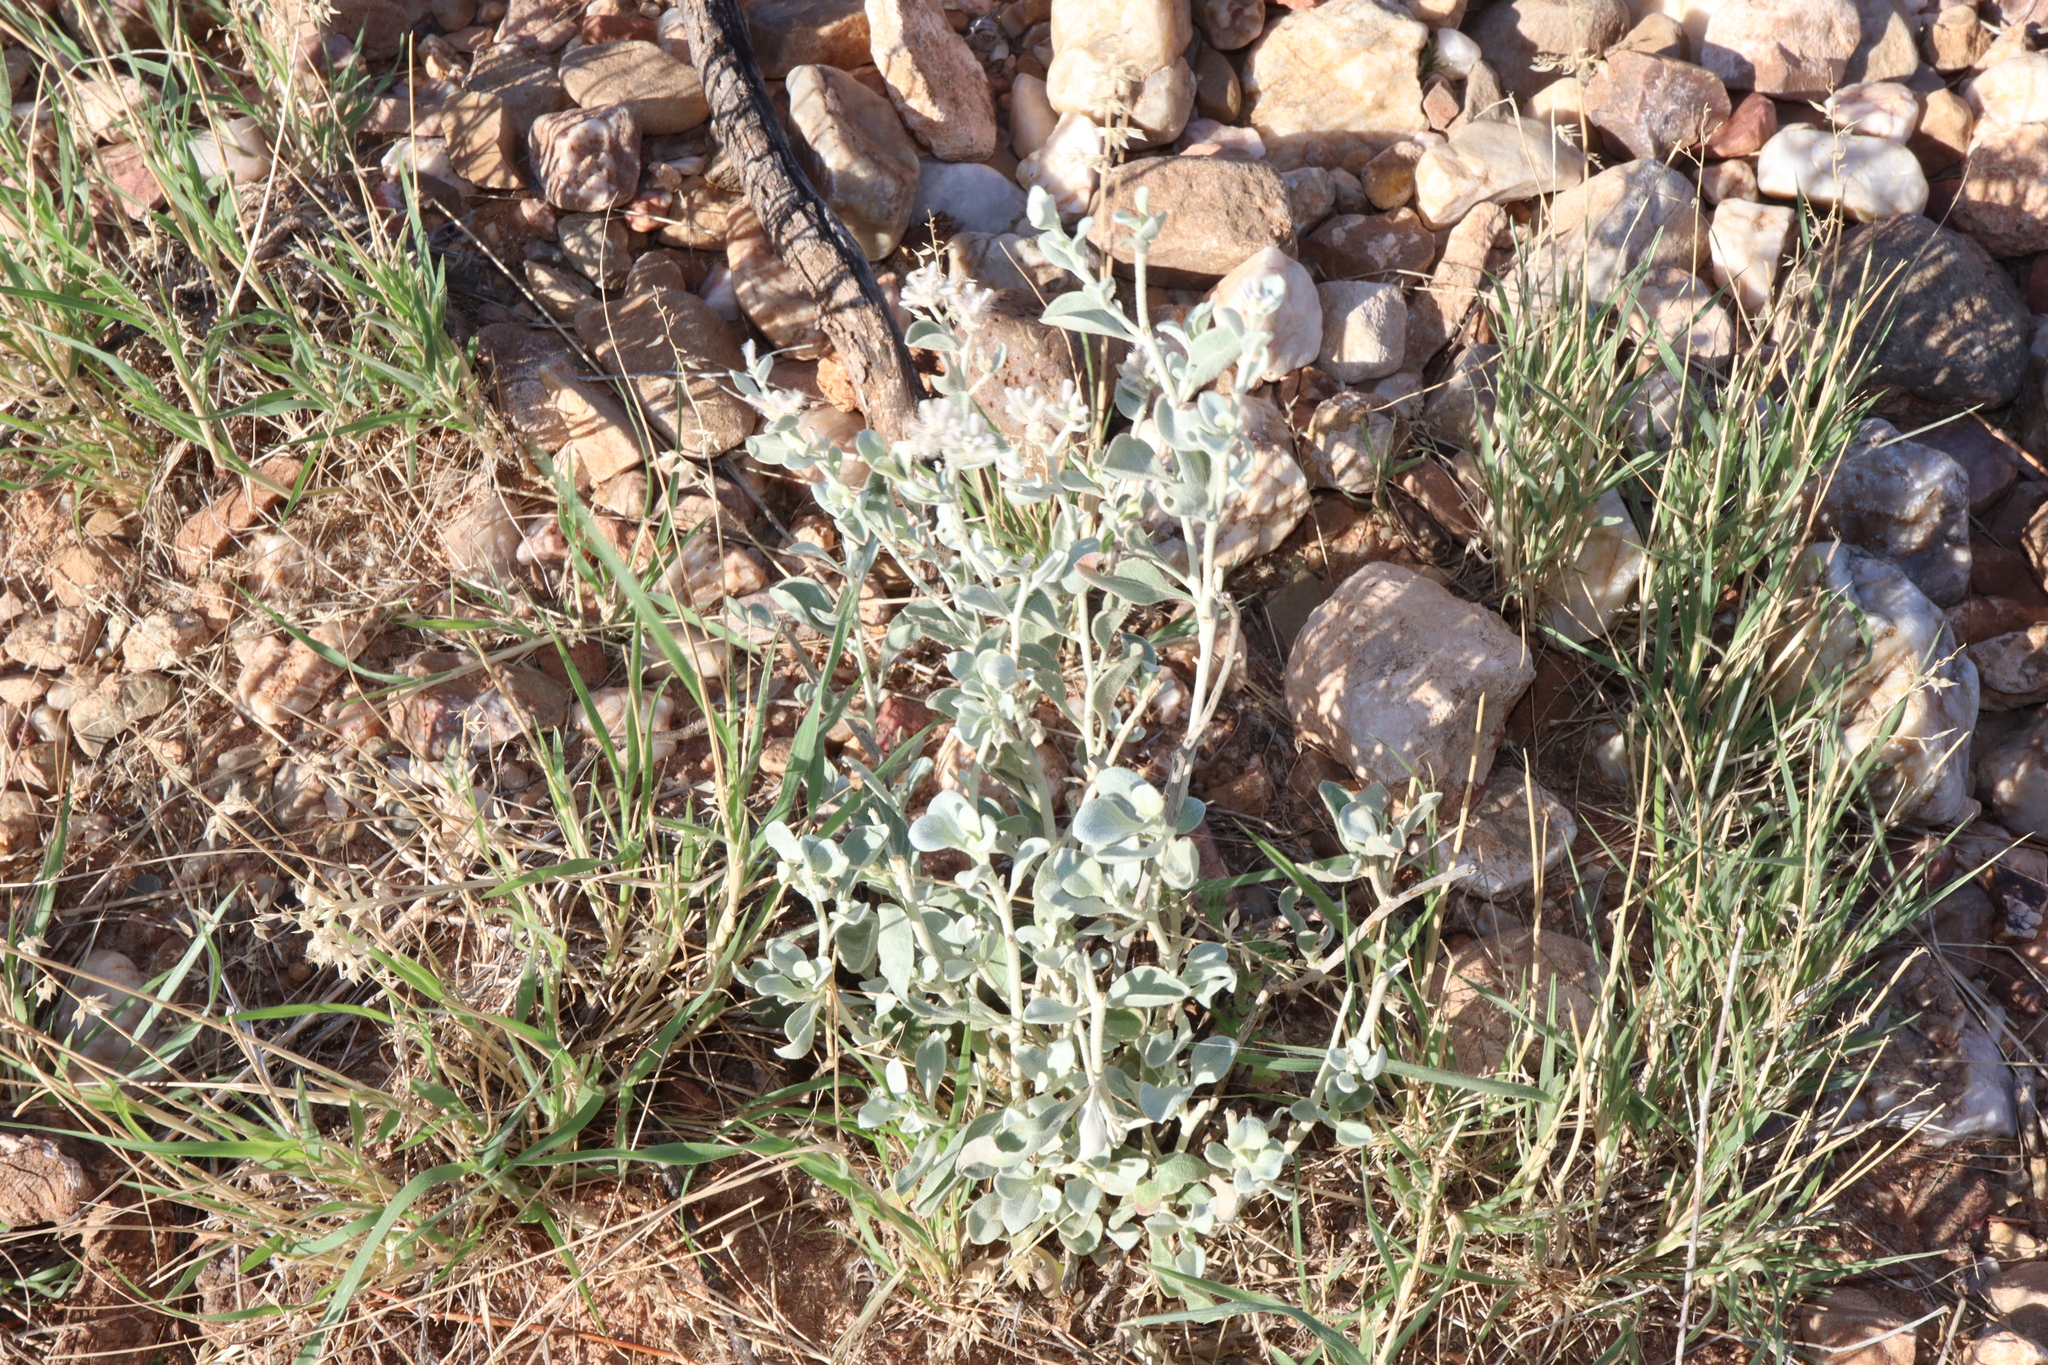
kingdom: Plantae
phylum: Tracheophyta
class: Magnoliopsida
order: Caryophyllales
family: Amaranthaceae
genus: Ptilotus
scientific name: Ptilotus obovatus
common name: Cottonbush
